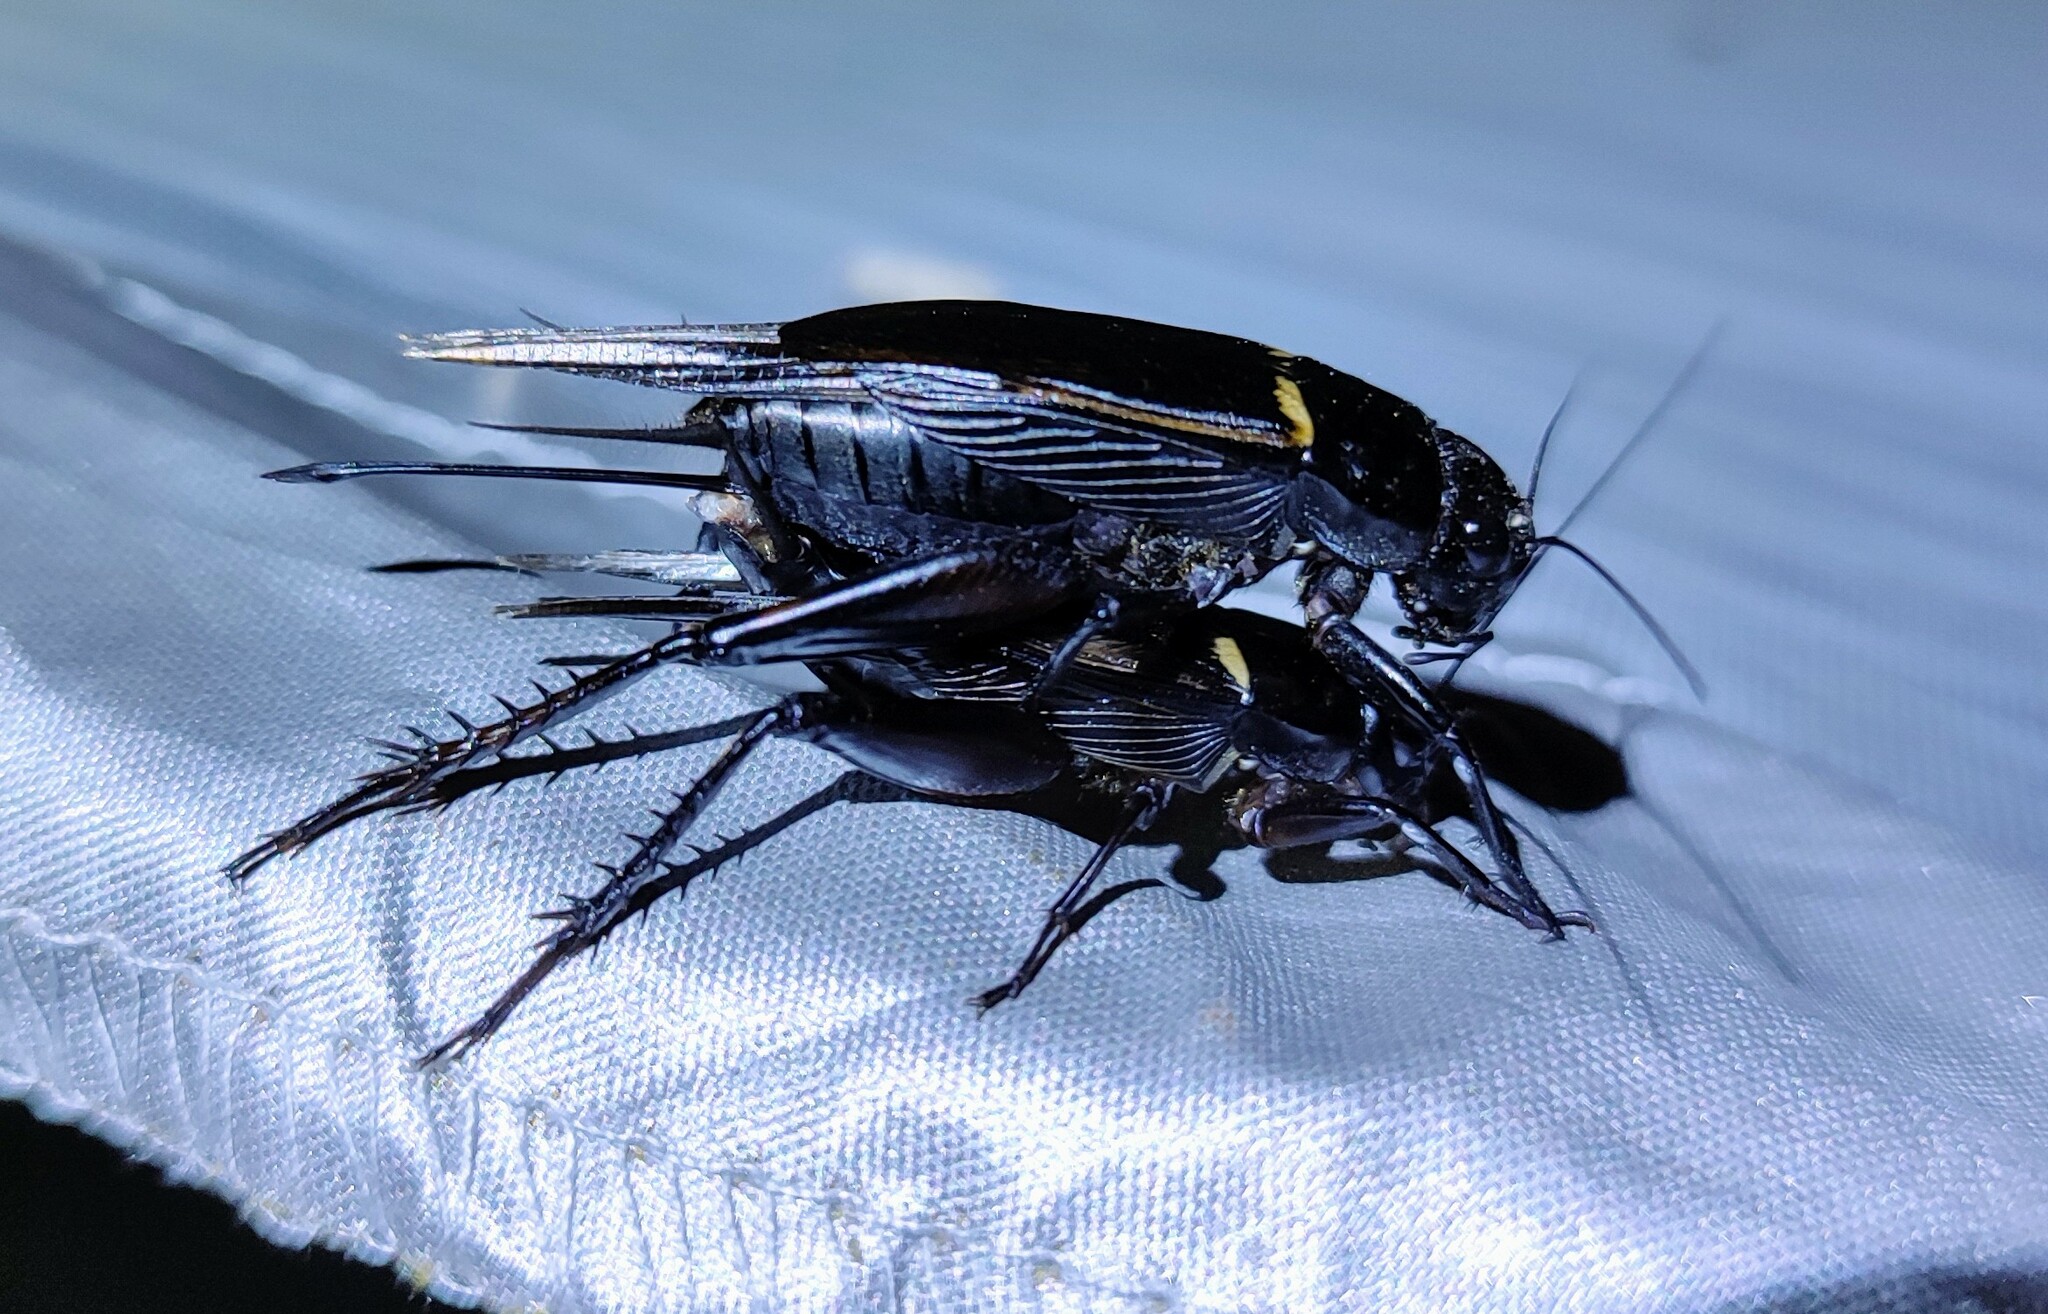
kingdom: Animalia
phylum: Arthropoda
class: Insecta
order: Orthoptera
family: Gryllidae
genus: Gryllus
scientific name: Gryllus bimaculatus
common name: Two-spotted cricket
